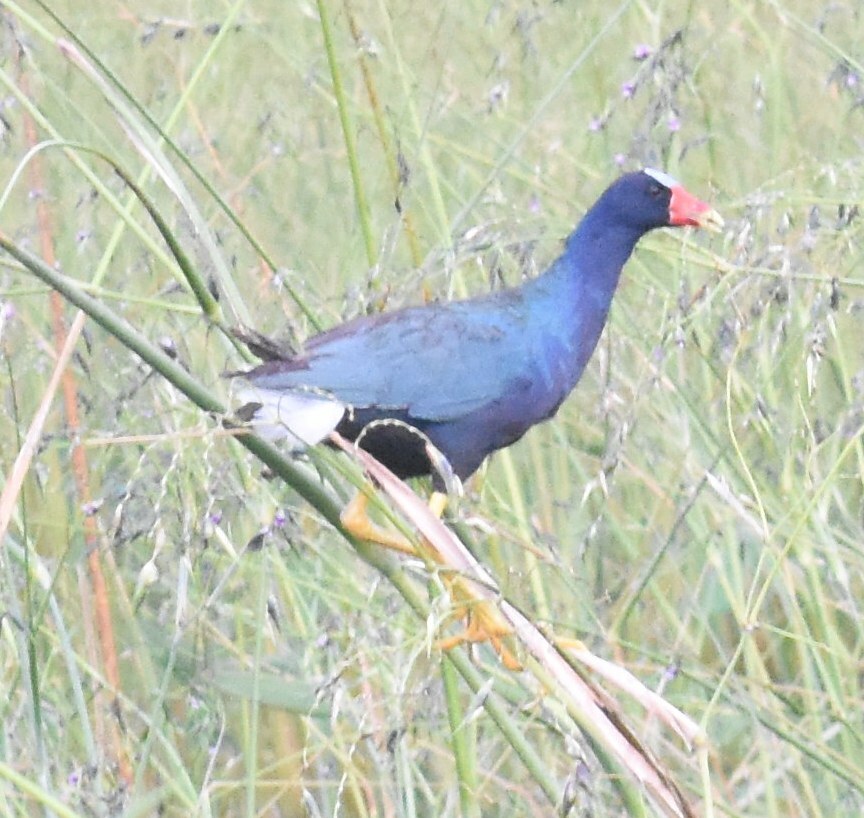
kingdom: Animalia
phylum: Chordata
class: Aves
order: Gruiformes
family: Rallidae
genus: Porphyrio
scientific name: Porphyrio martinica
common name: Purple gallinule
